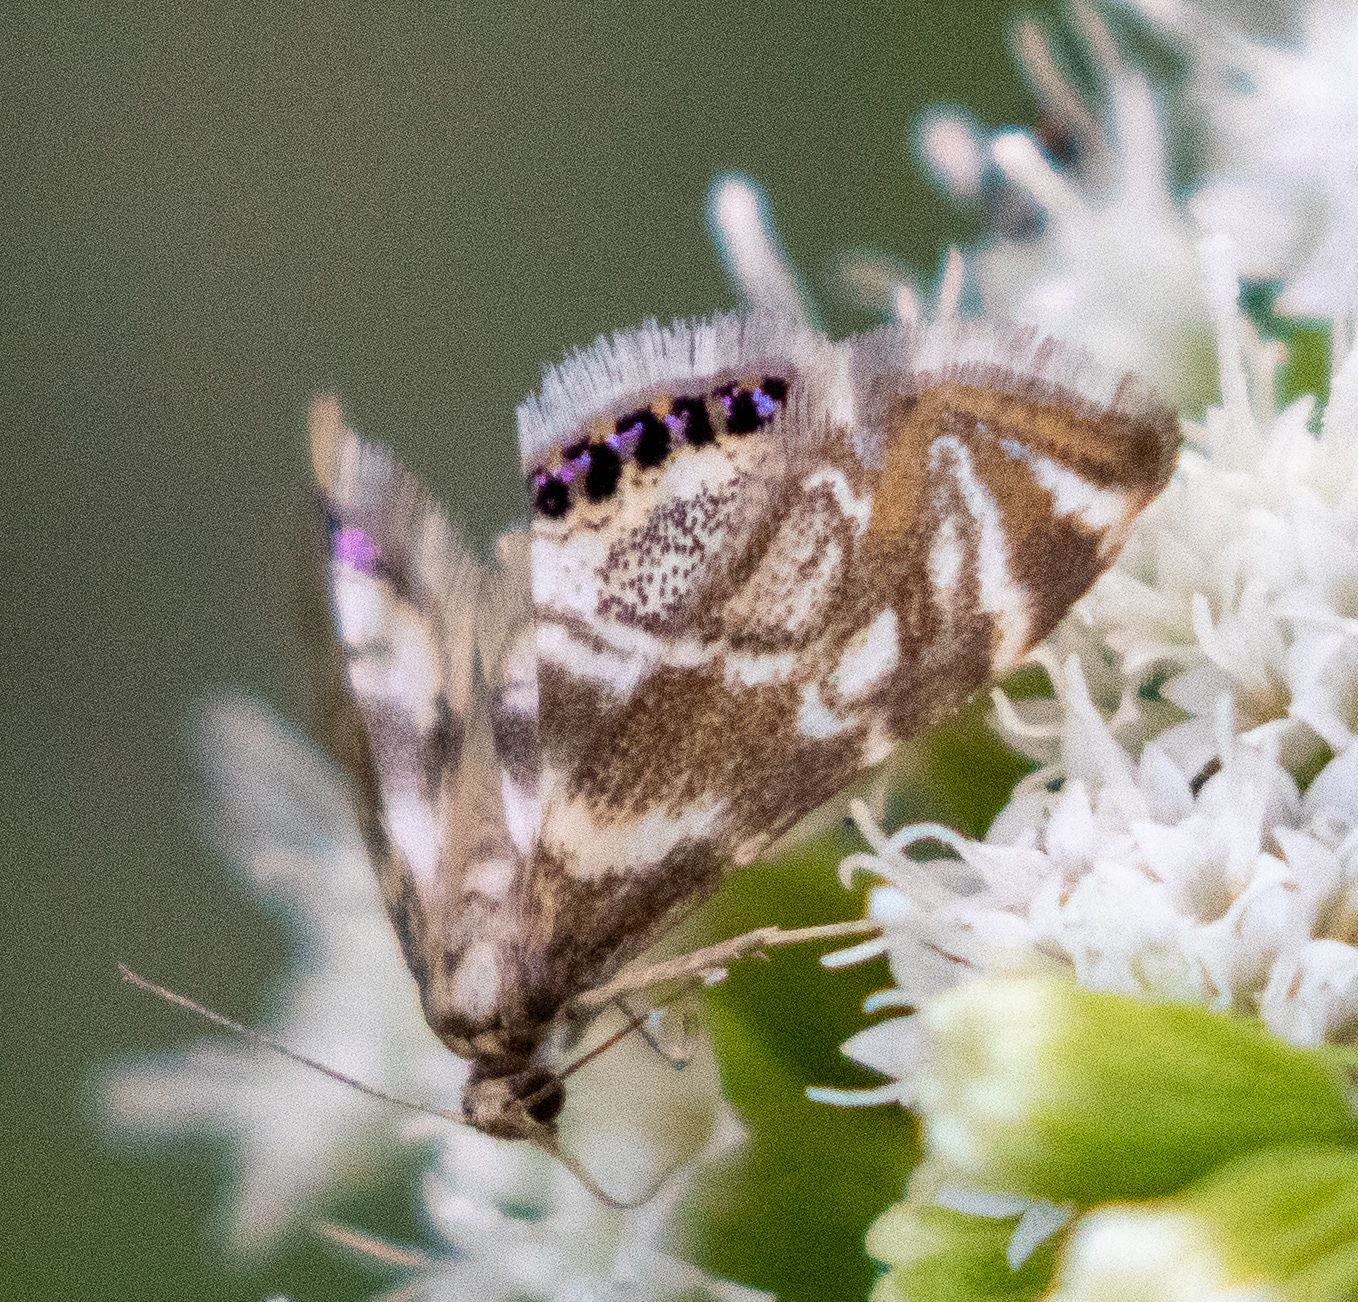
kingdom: Animalia
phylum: Arthropoda
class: Insecta
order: Lepidoptera
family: Crambidae
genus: Petrophila
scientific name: Petrophila canadensis
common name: Canadian petrophila
